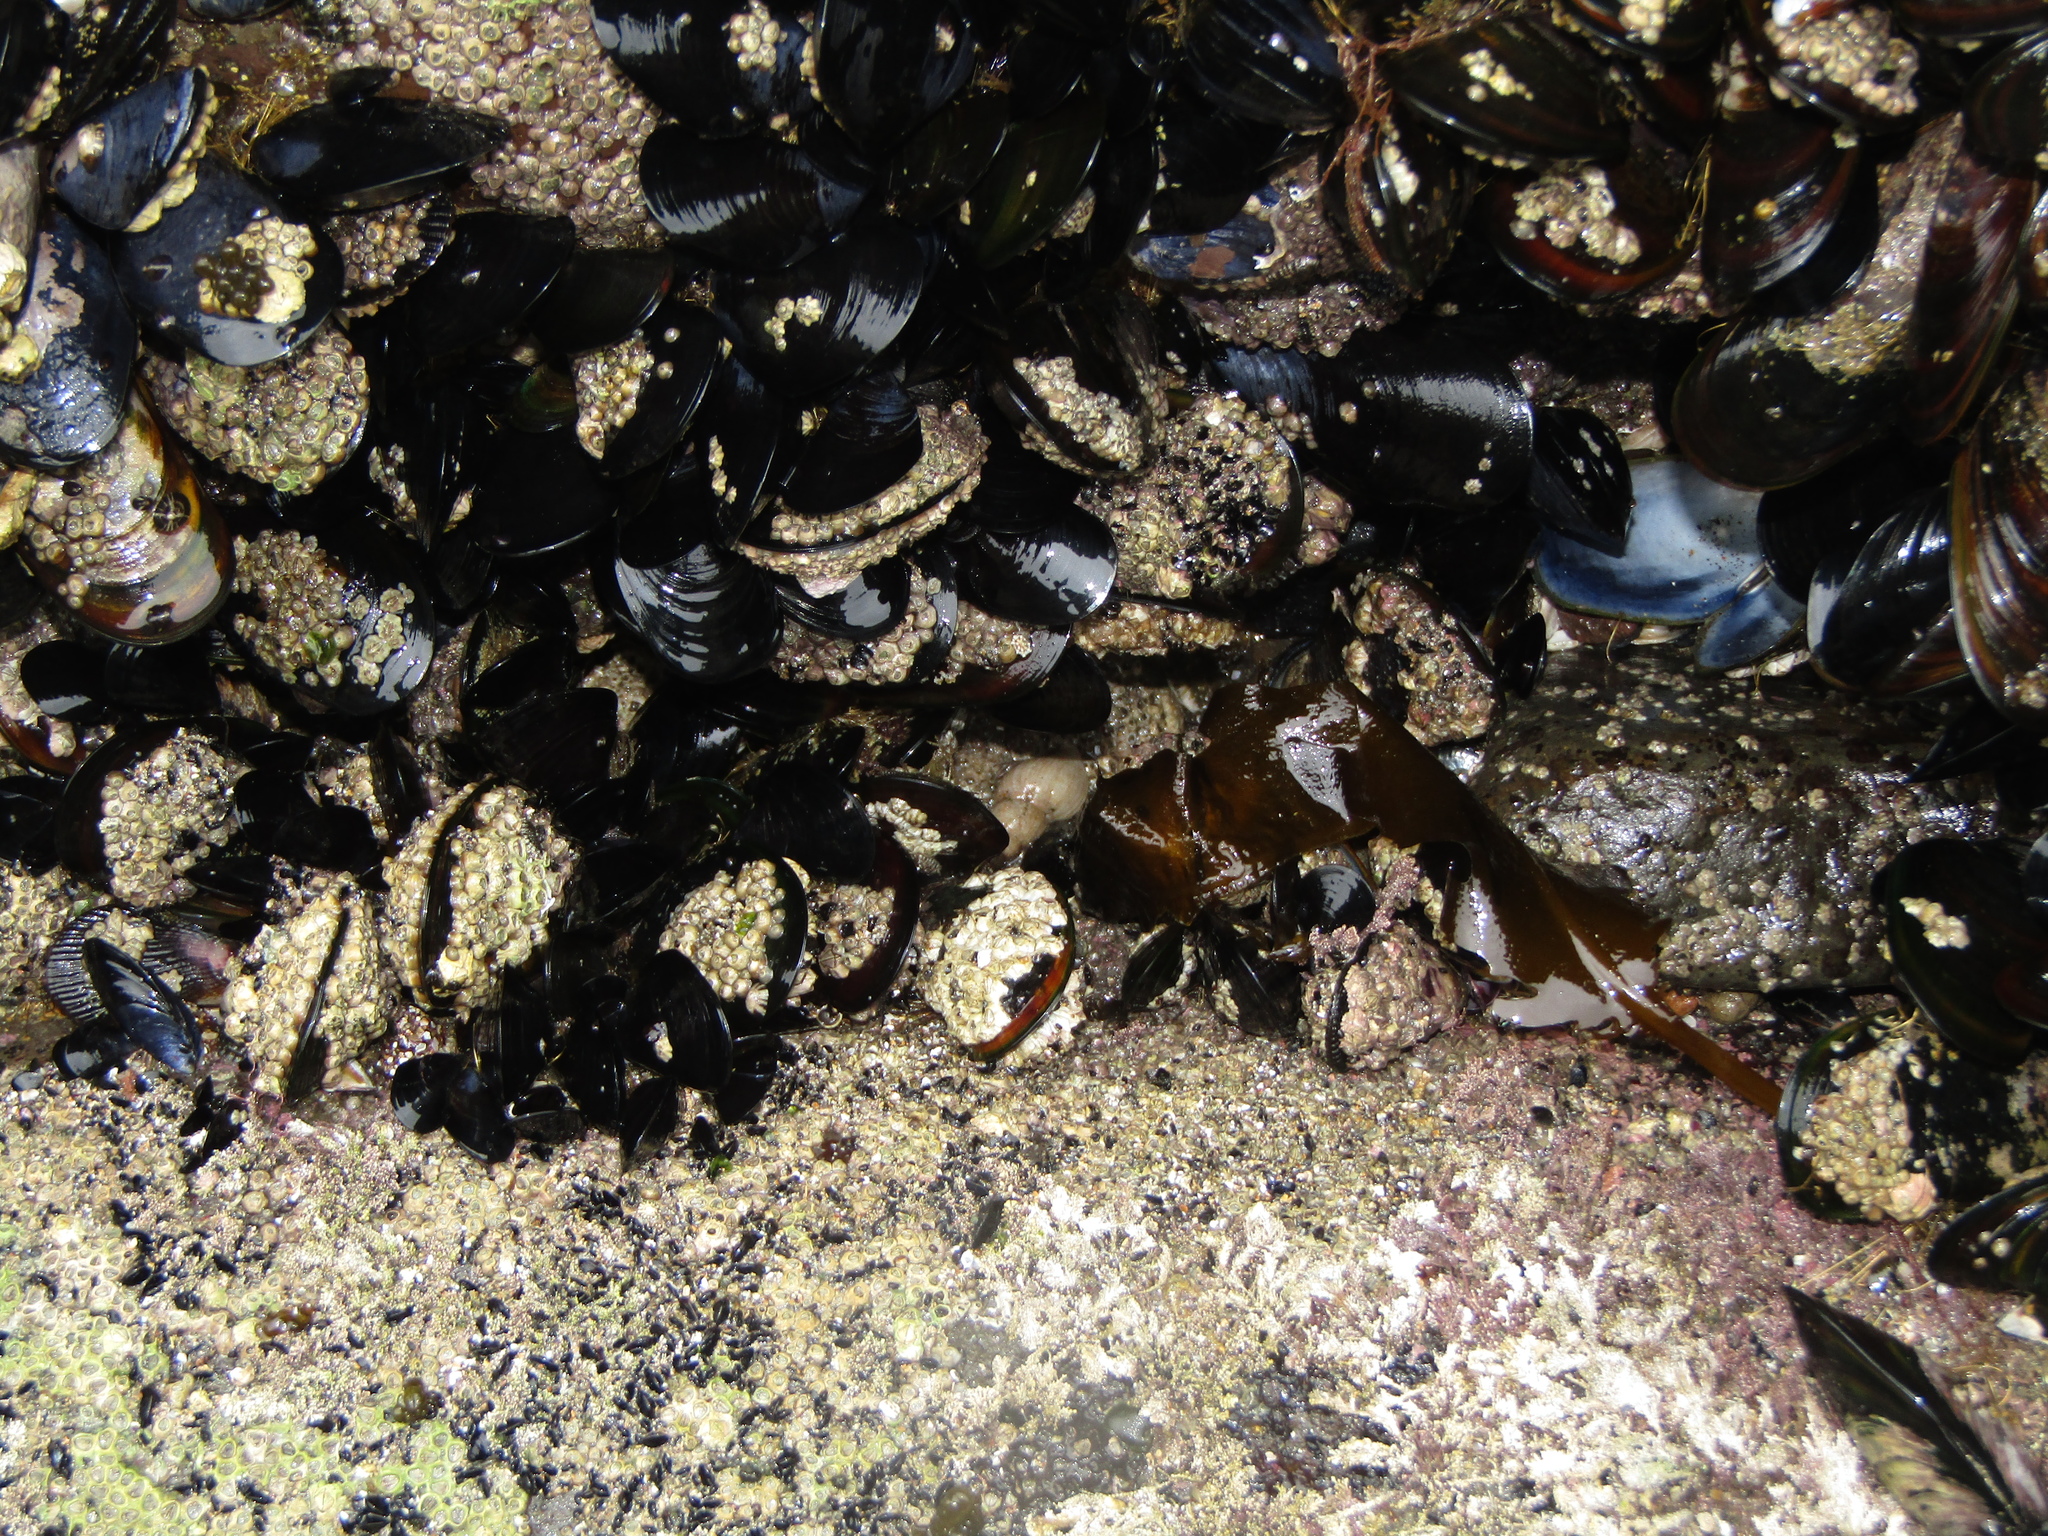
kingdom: Animalia
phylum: Mollusca
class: Gastropoda
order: Neogastropoda
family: Tudiclidae
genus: Buccinulum
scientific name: Buccinulum littorinoides
